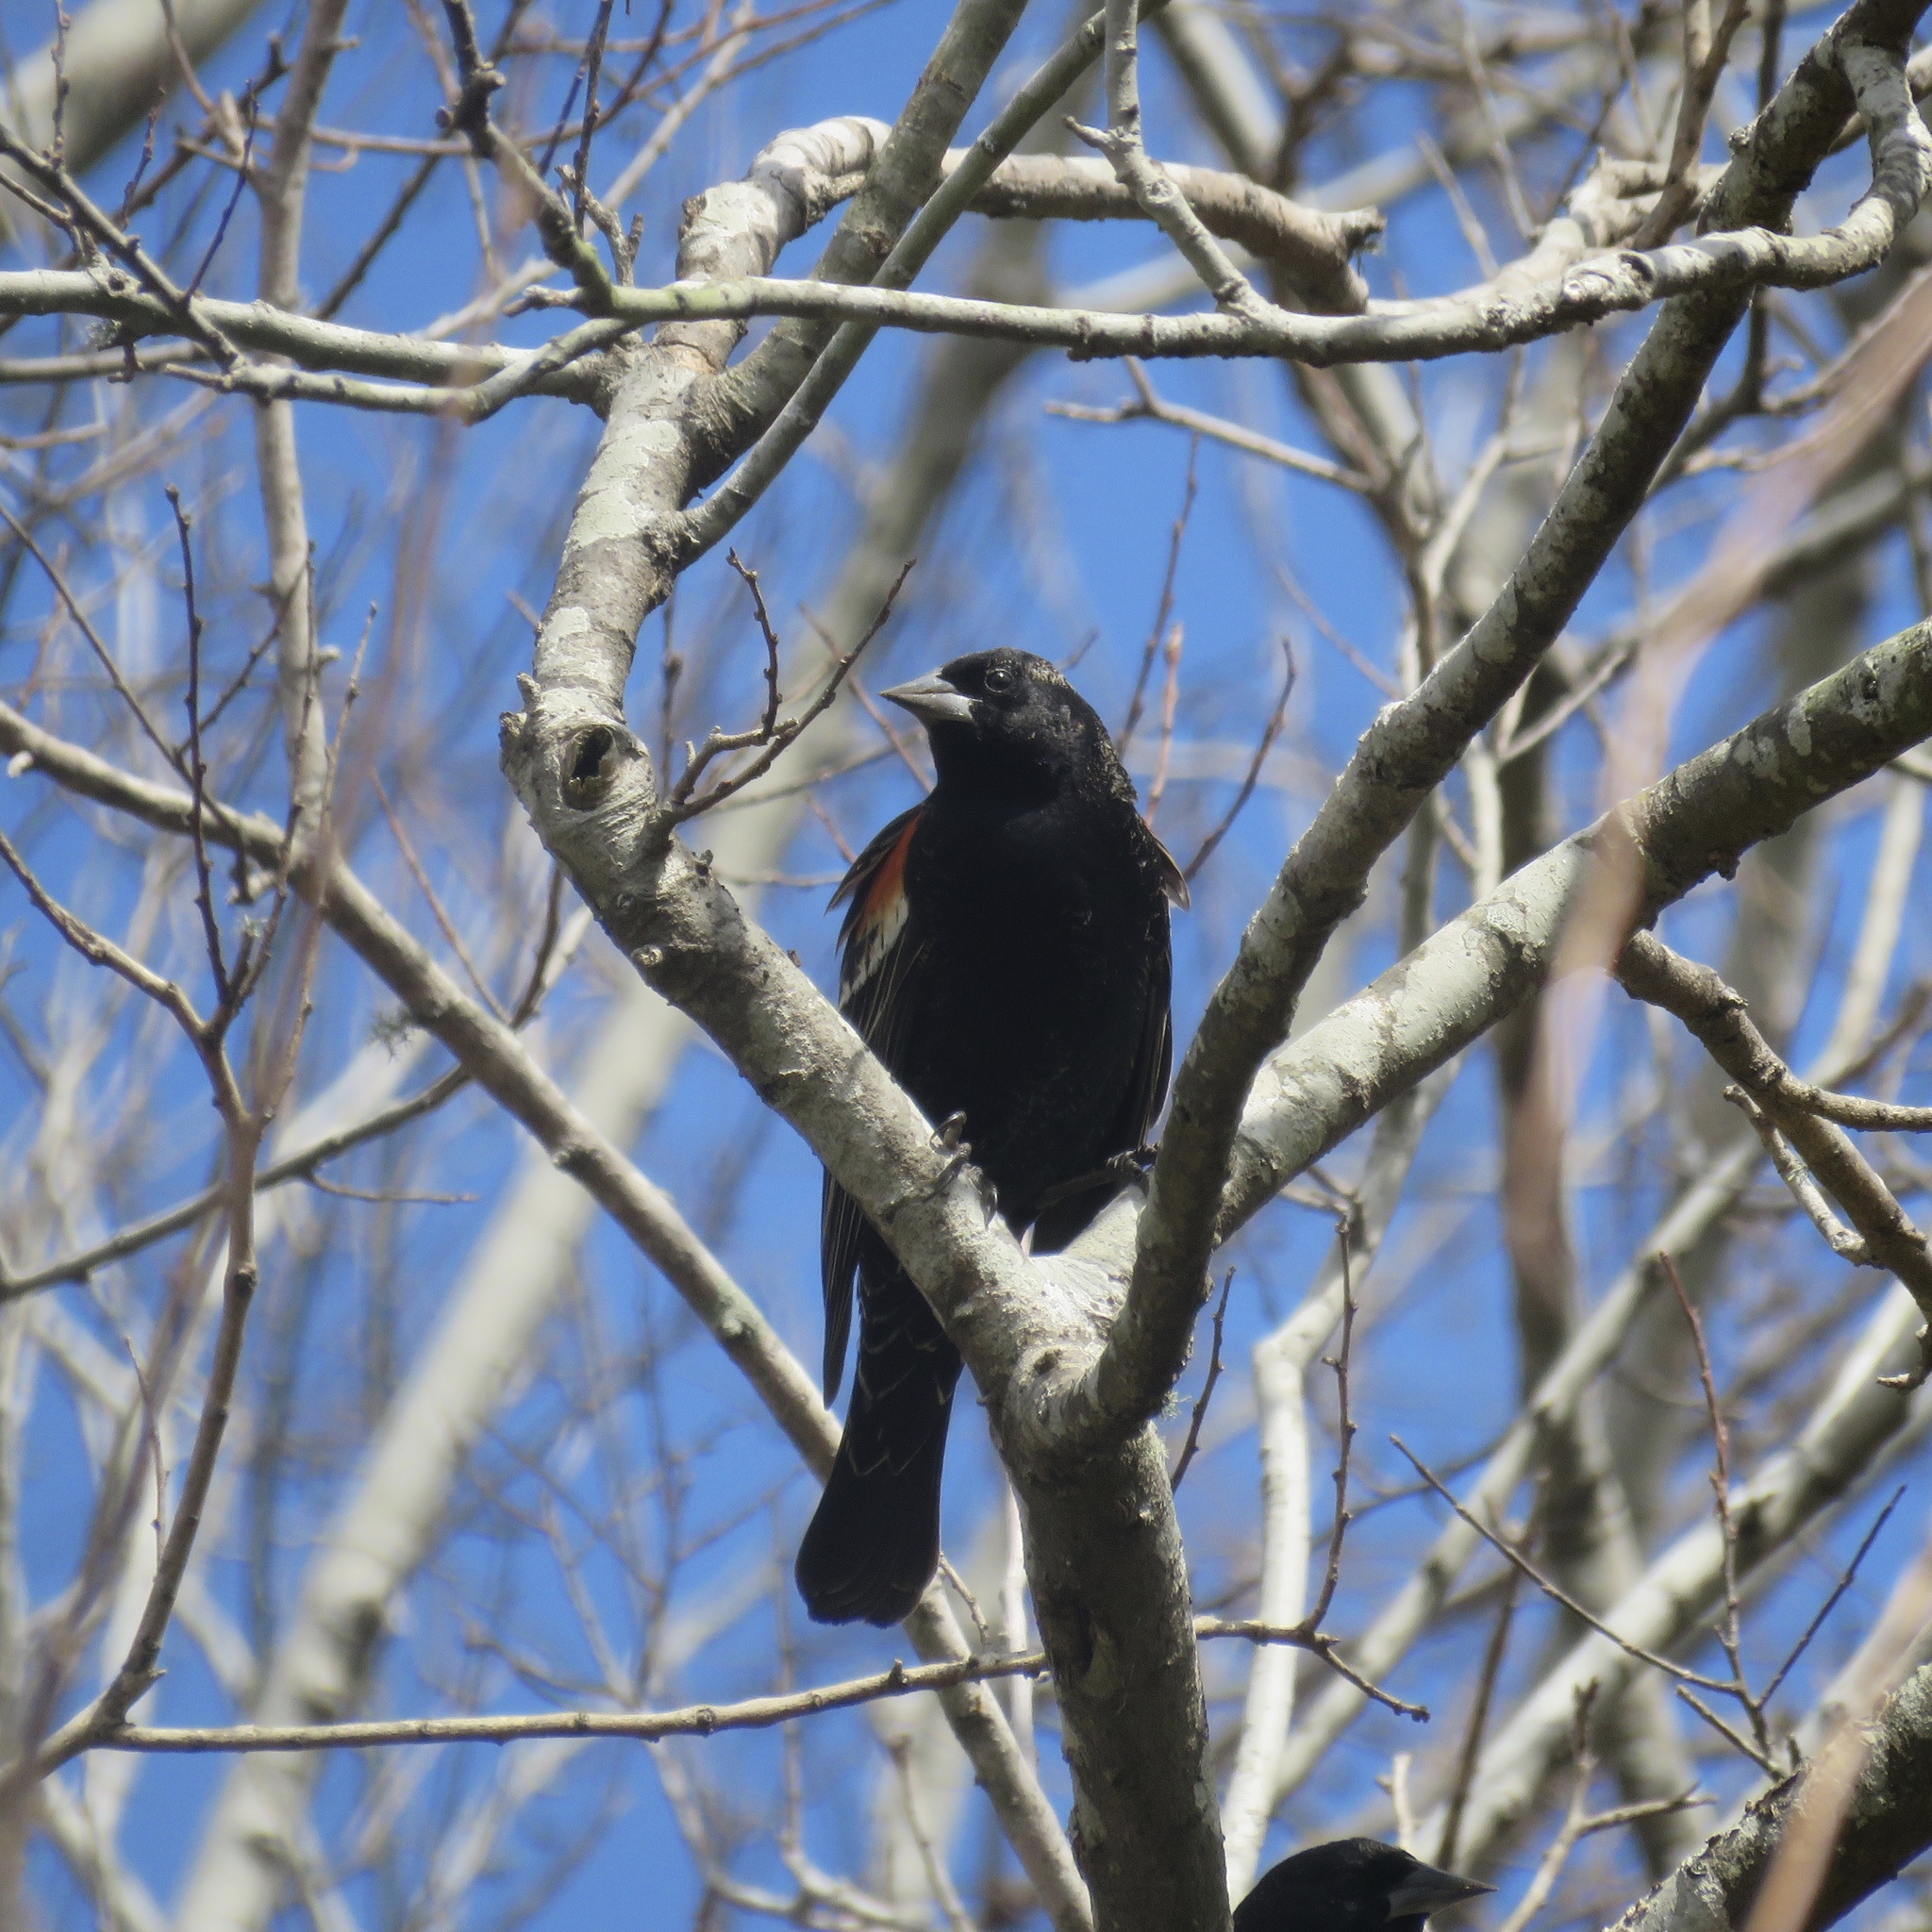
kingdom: Animalia
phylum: Chordata
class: Aves
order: Passeriformes
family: Icteridae
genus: Agelaius
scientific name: Agelaius phoeniceus
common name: Red-winged blackbird
